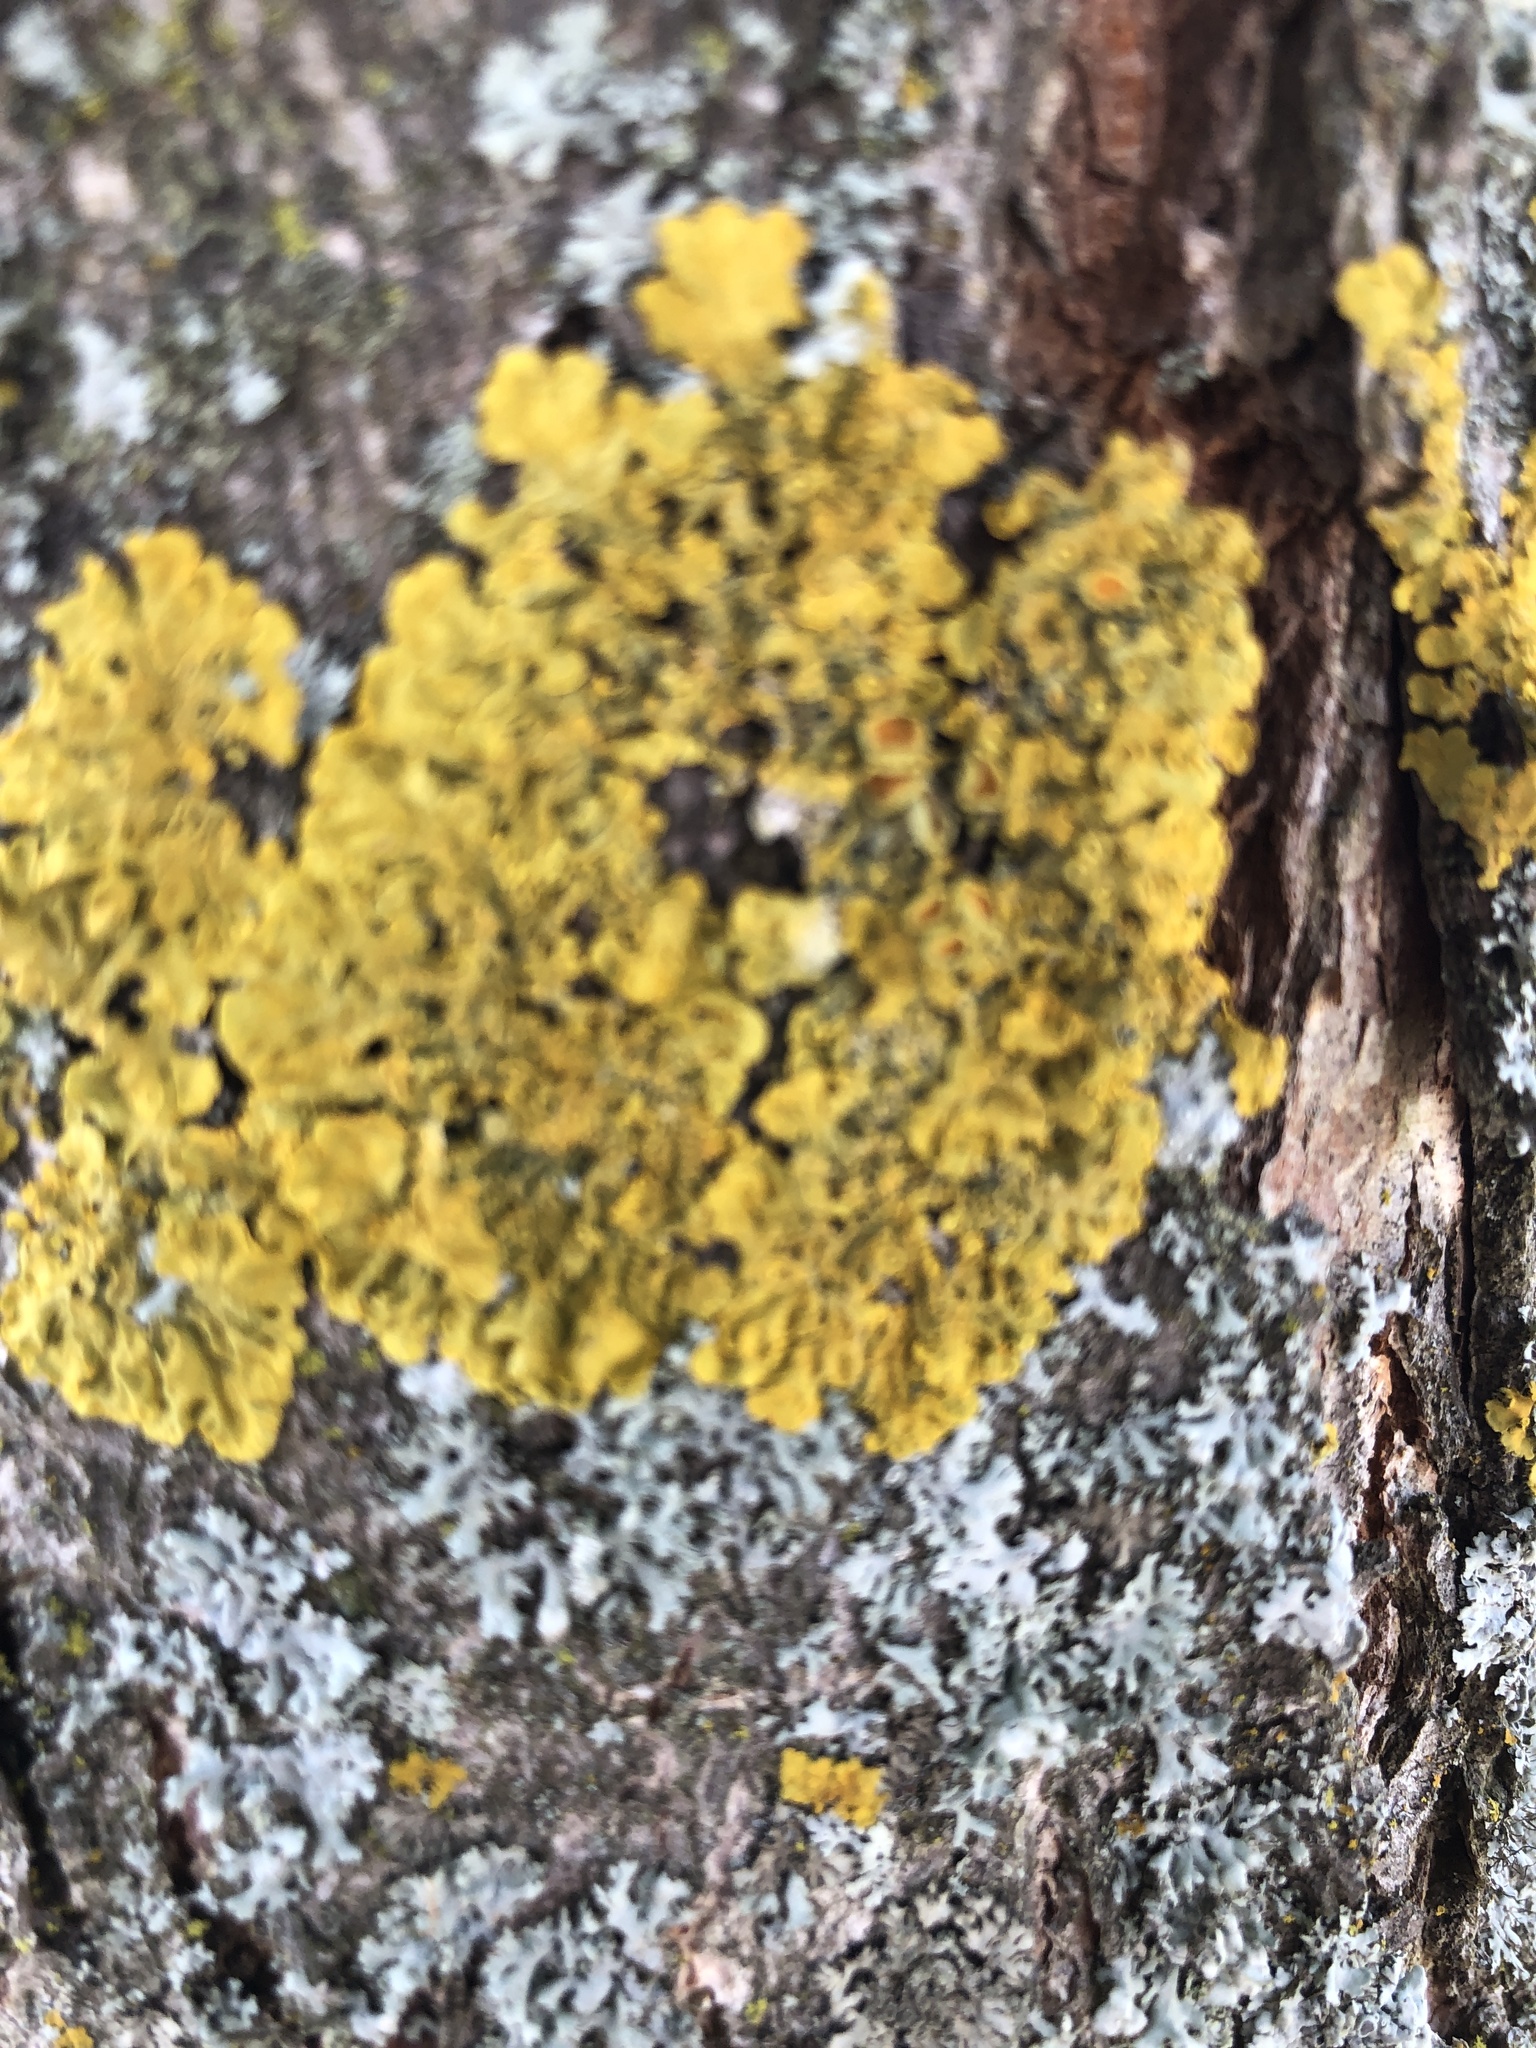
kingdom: Fungi
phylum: Ascomycota
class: Lecanoromycetes
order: Teloschistales
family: Teloschistaceae
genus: Xanthoria
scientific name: Xanthoria parietina
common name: Common orange lichen
